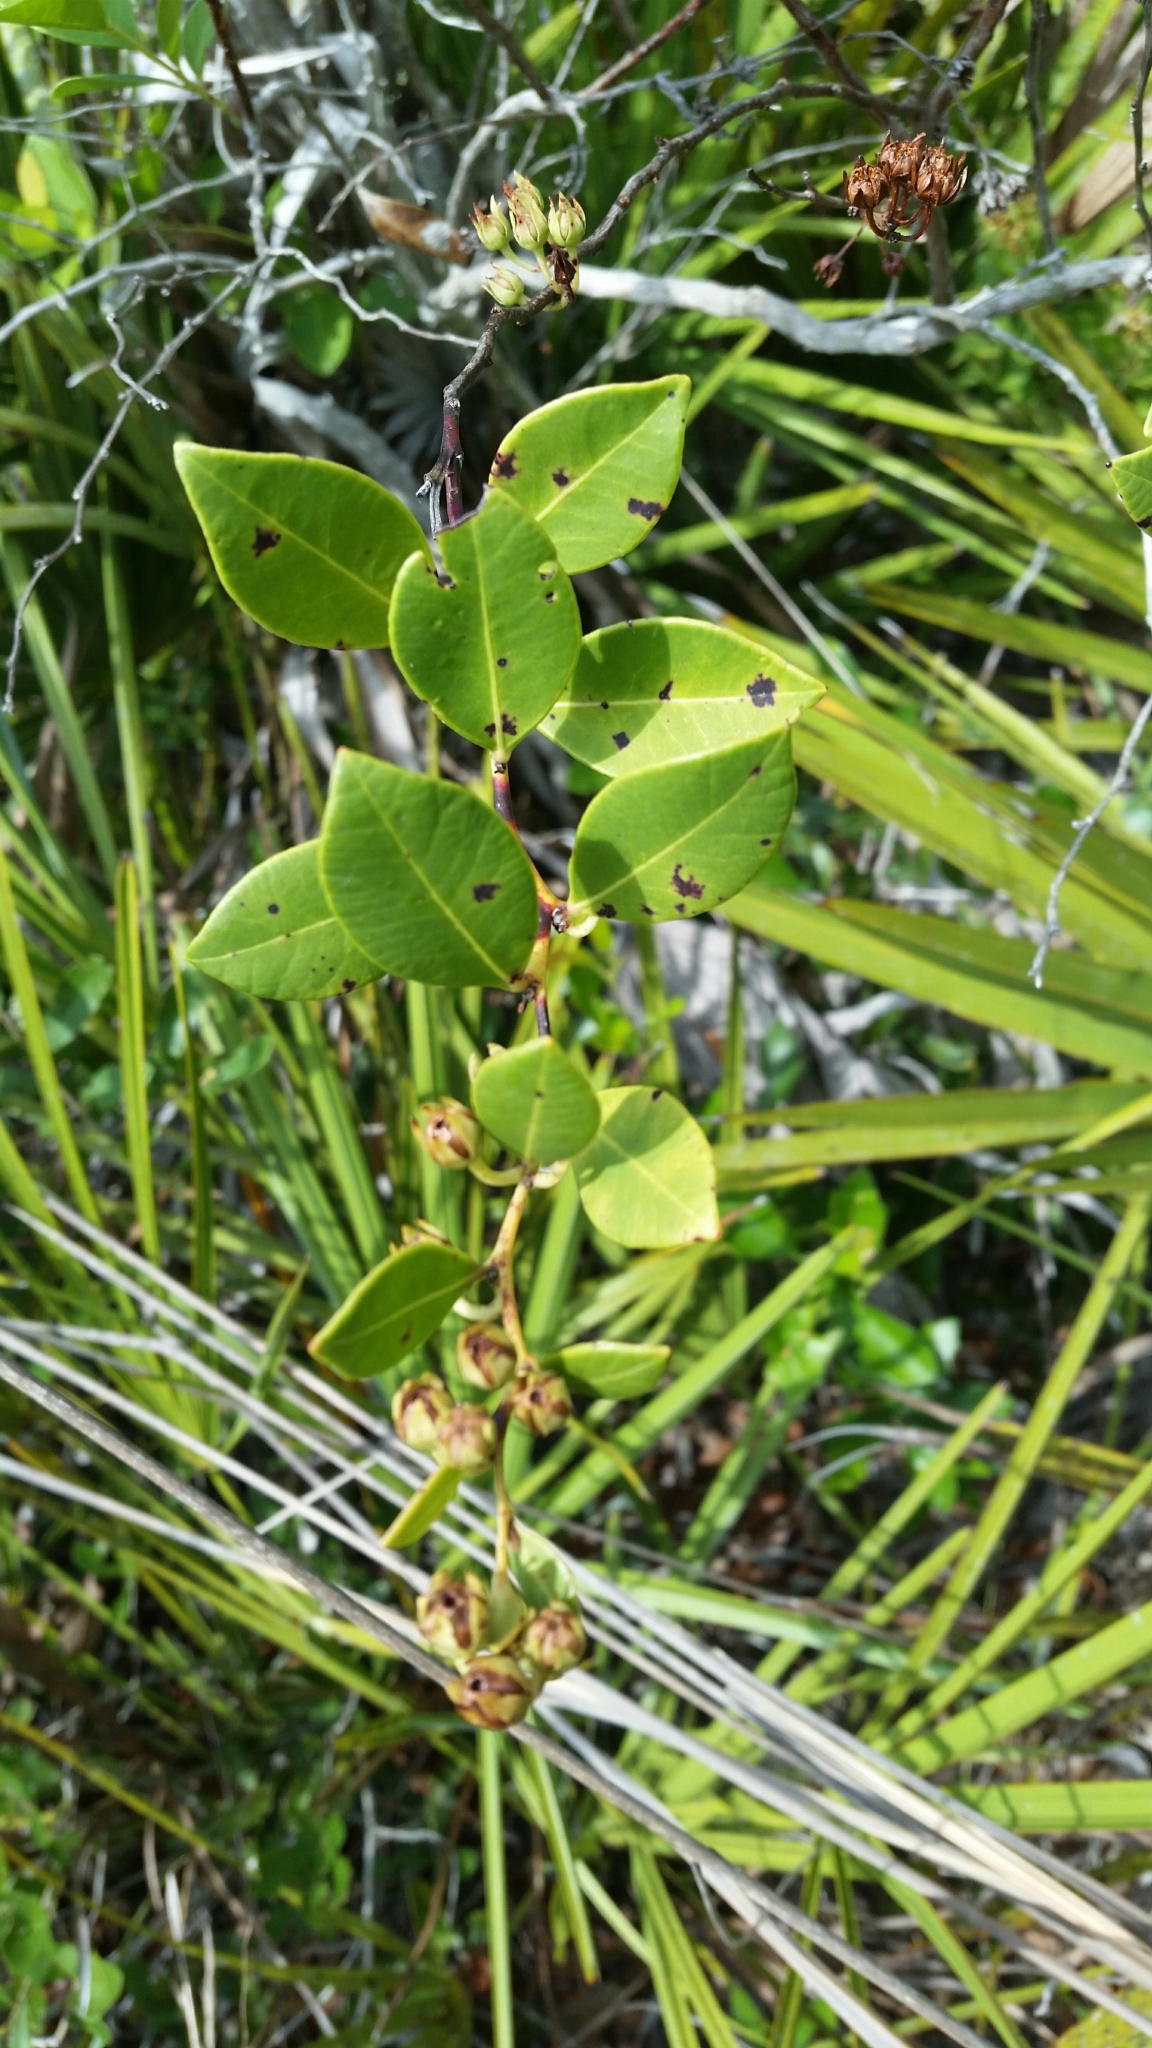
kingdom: Plantae
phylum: Tracheophyta
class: Magnoliopsida
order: Ericales
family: Ericaceae
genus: Lyonia
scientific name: Lyonia lucida
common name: Fetterbush
